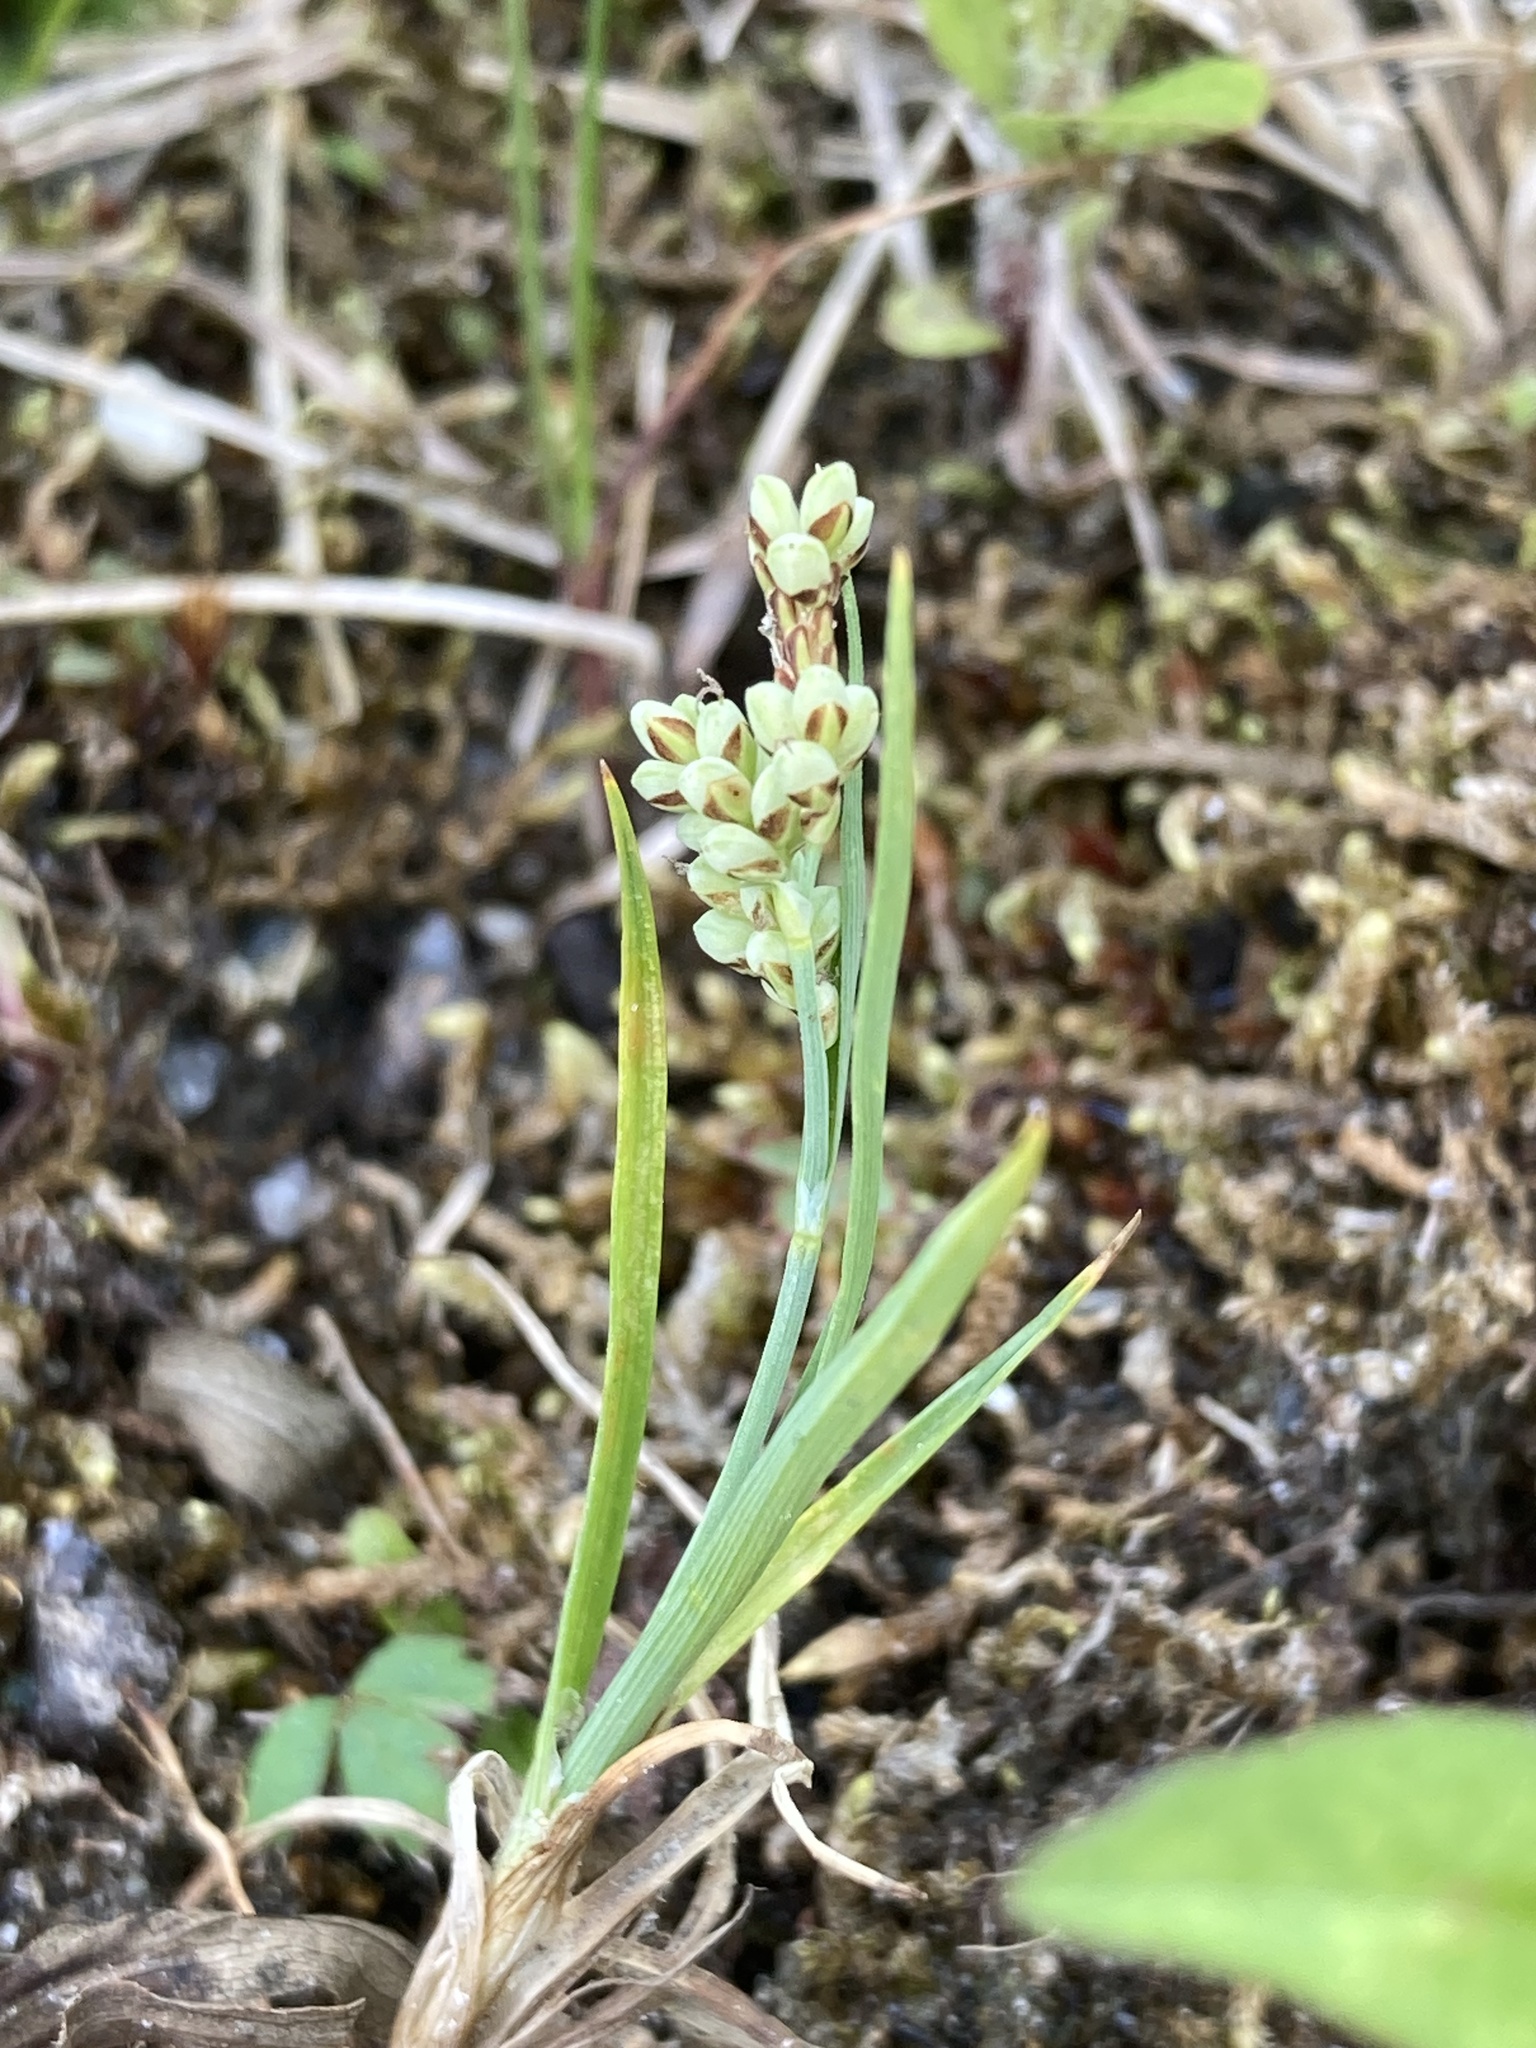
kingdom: Plantae
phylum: Tracheophyta
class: Liliopsida
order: Poales
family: Cyperaceae
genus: Carex
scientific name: Carex garberi
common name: Elk sedge
